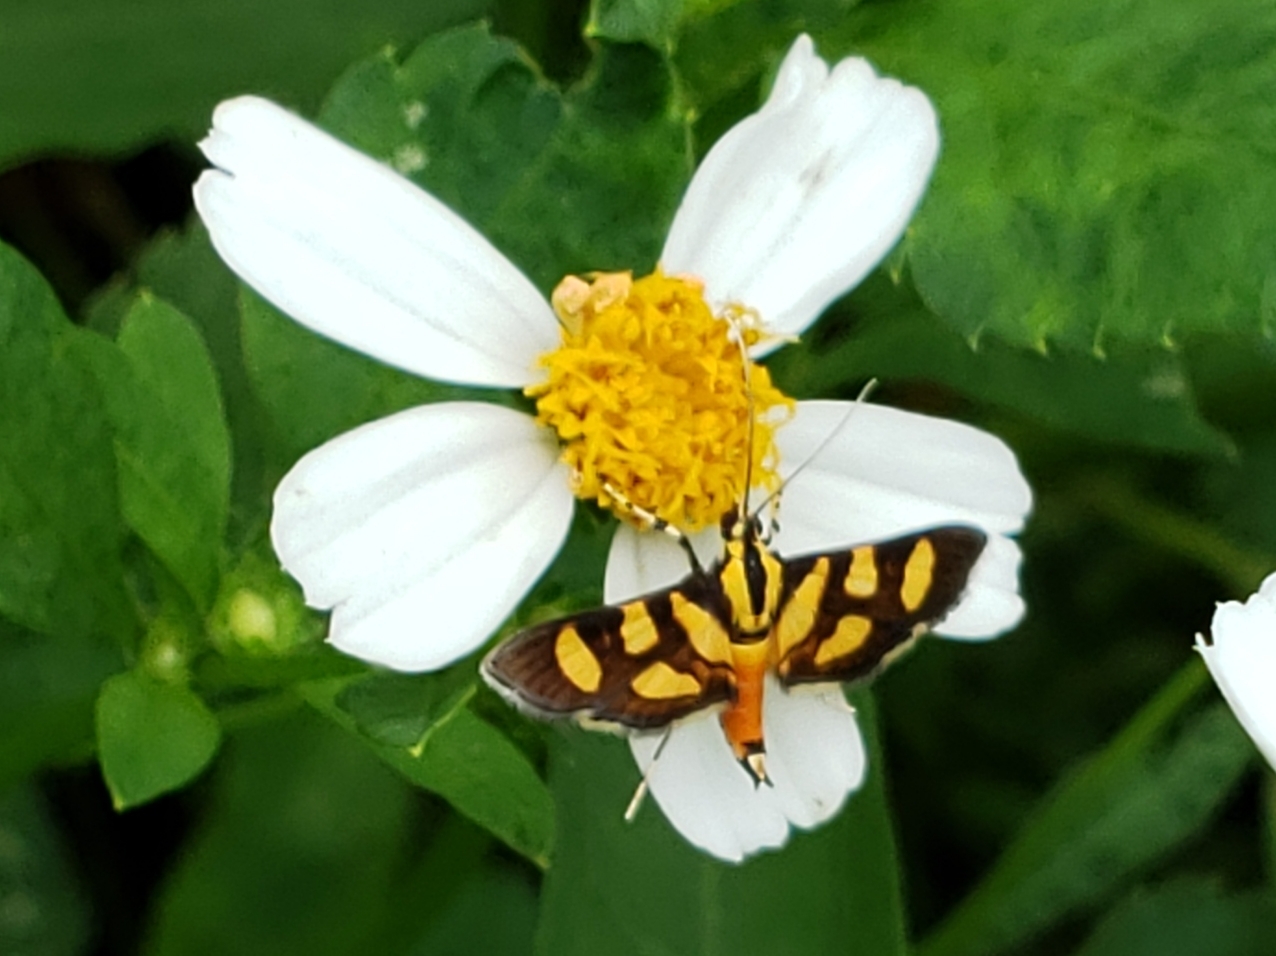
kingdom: Animalia
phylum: Arthropoda
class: Insecta
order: Lepidoptera
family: Crambidae
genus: Syngamia
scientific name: Syngamia florella
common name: Orange-spotted flower moth
